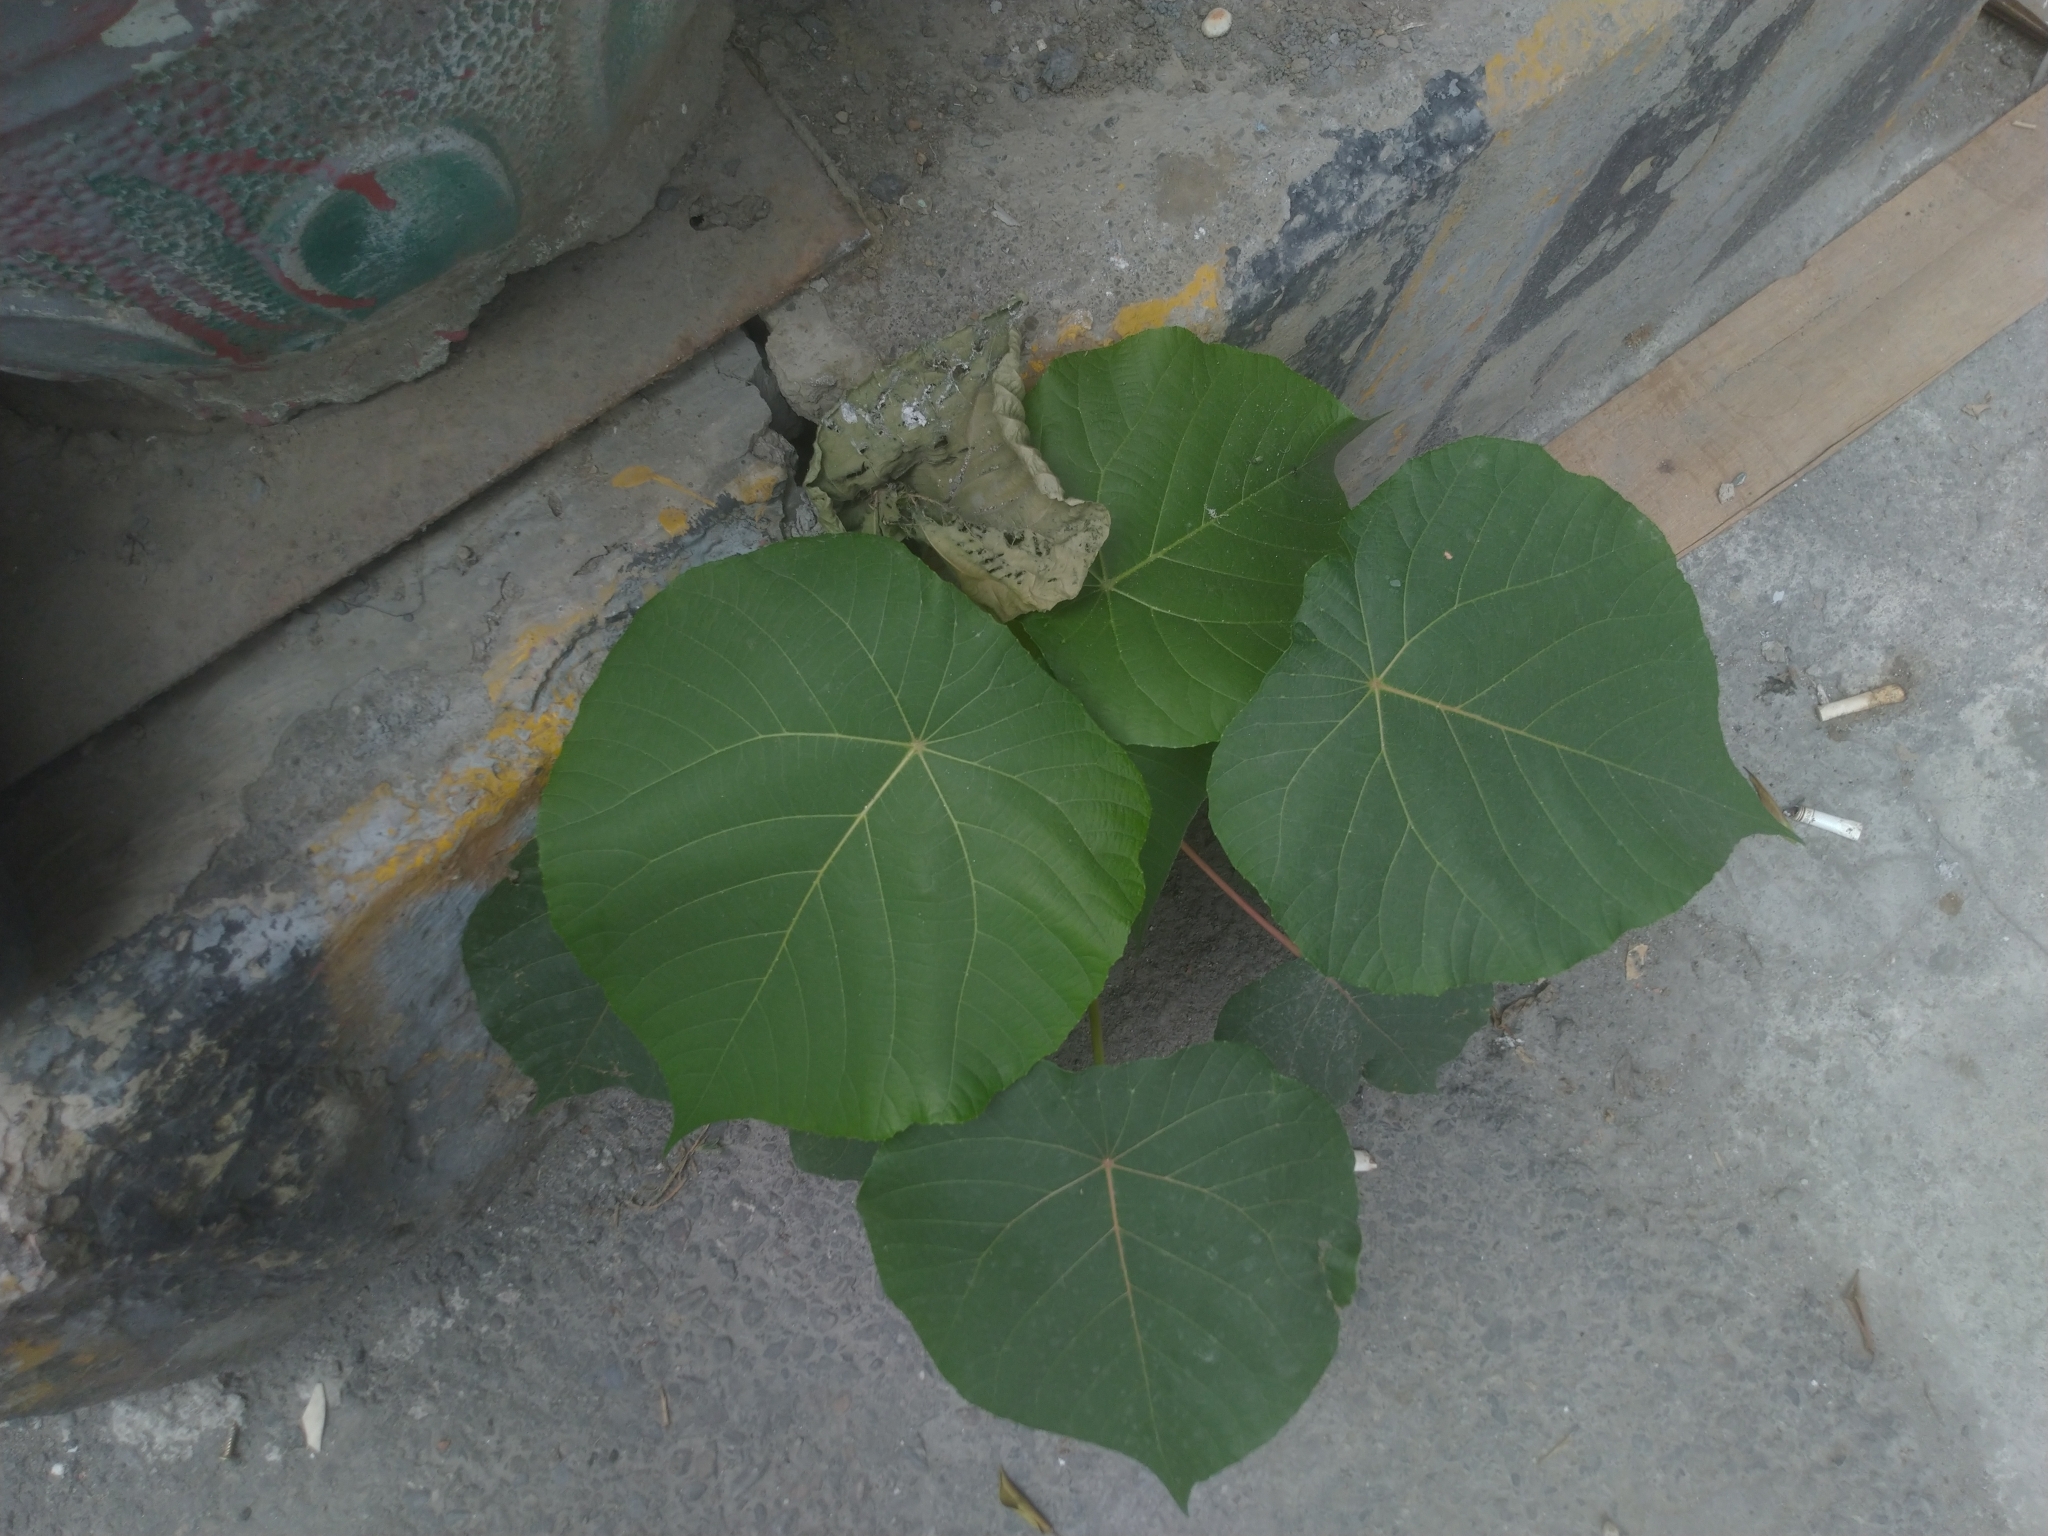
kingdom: Plantae
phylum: Tracheophyta
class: Magnoliopsida
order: Malpighiales
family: Euphorbiaceae
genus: Macaranga
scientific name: Macaranga tanarius
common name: Parasol leaf tree
